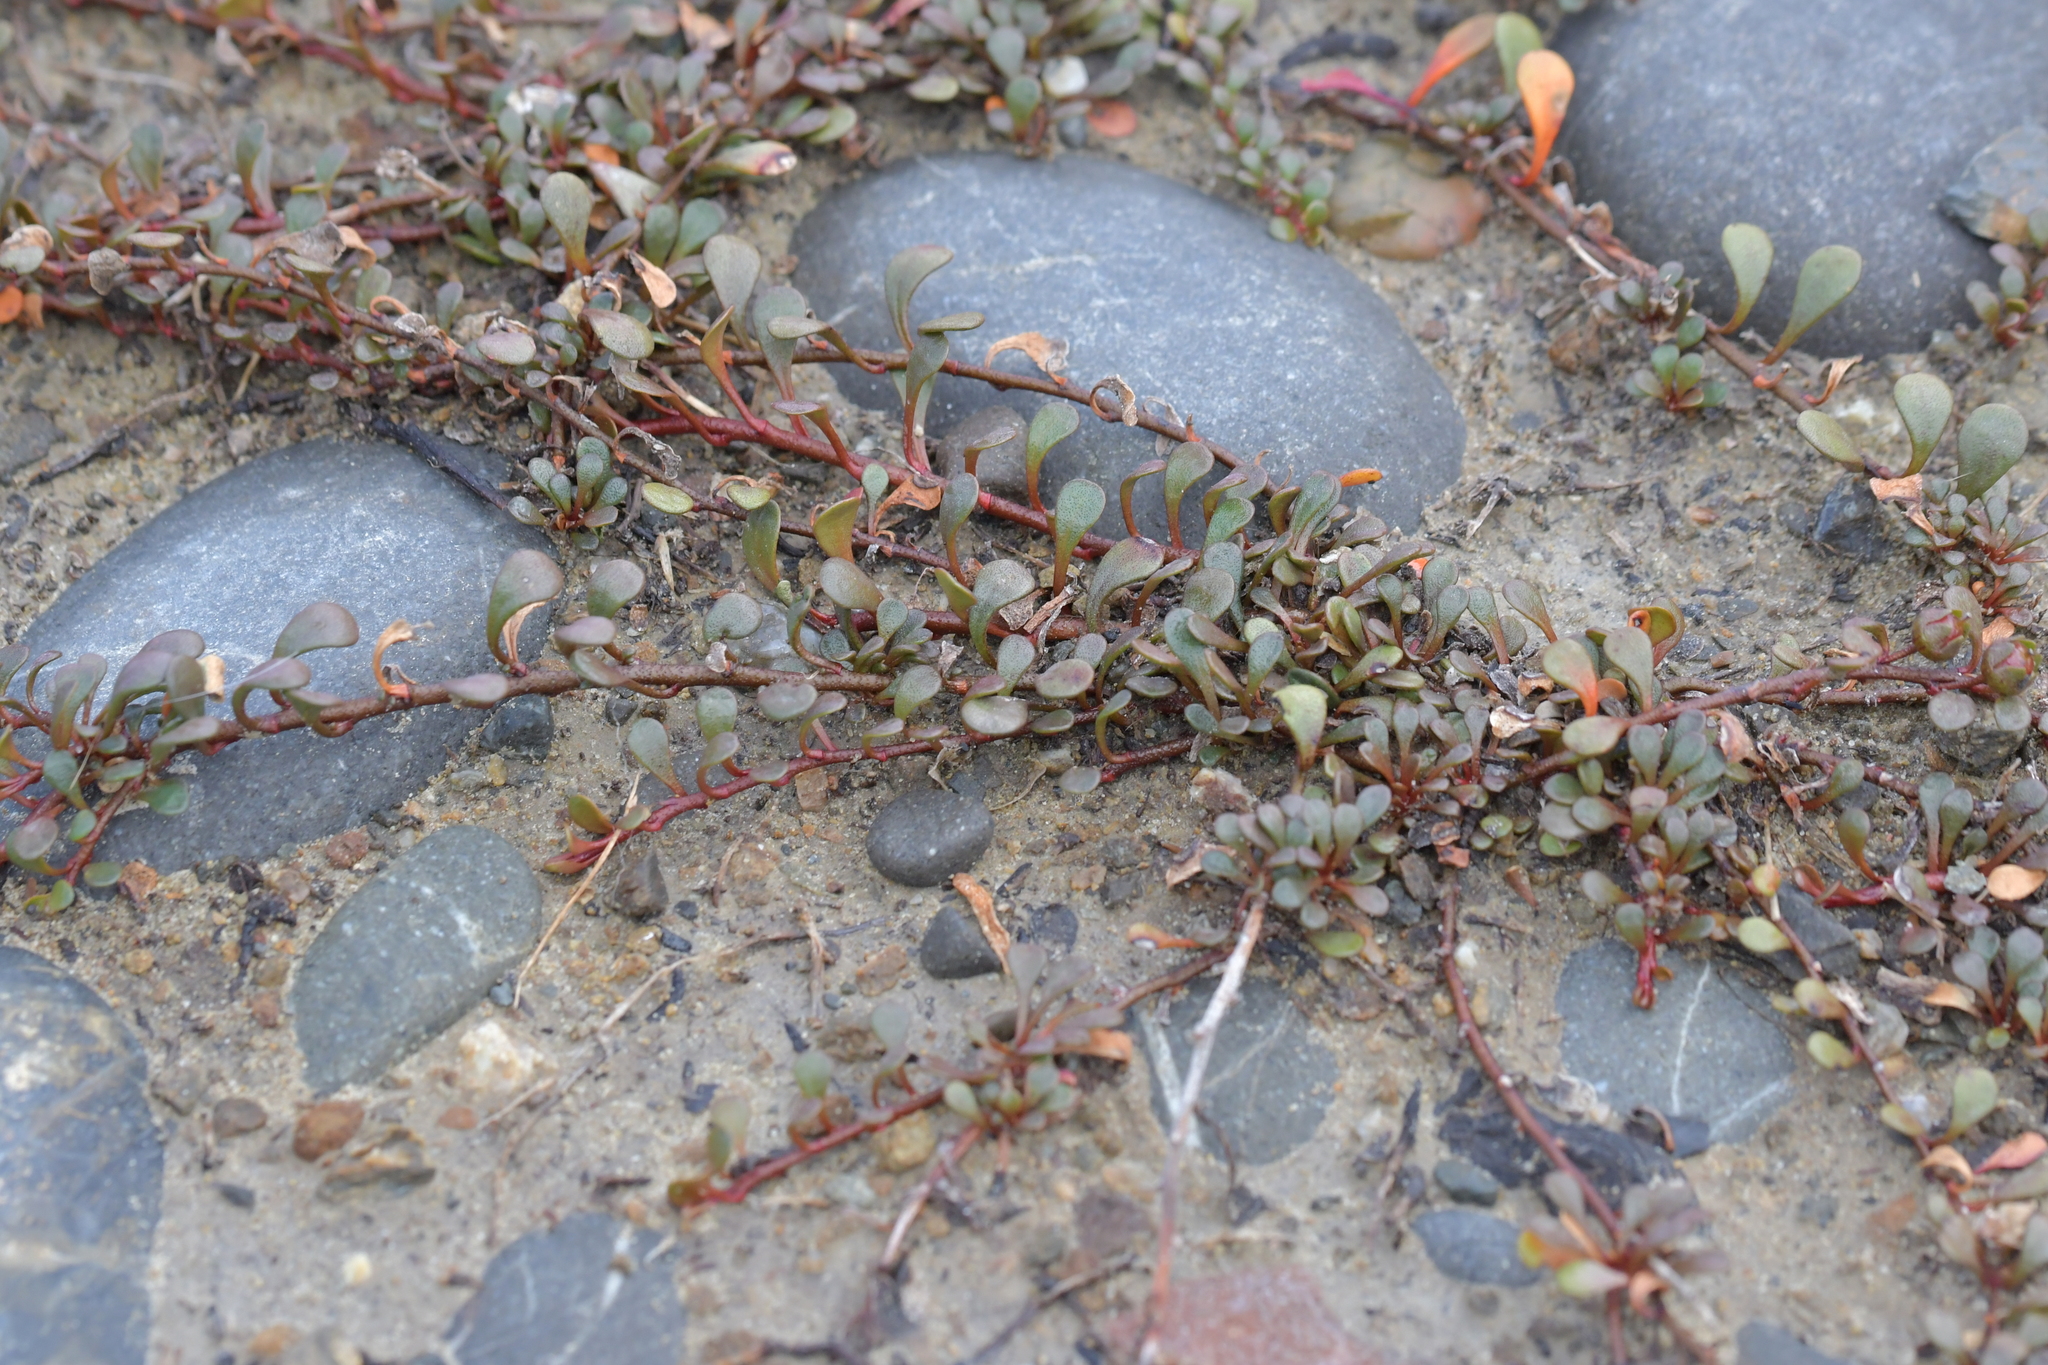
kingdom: Plantae
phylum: Tracheophyta
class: Magnoliopsida
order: Ericales
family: Primulaceae
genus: Samolus
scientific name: Samolus repens
